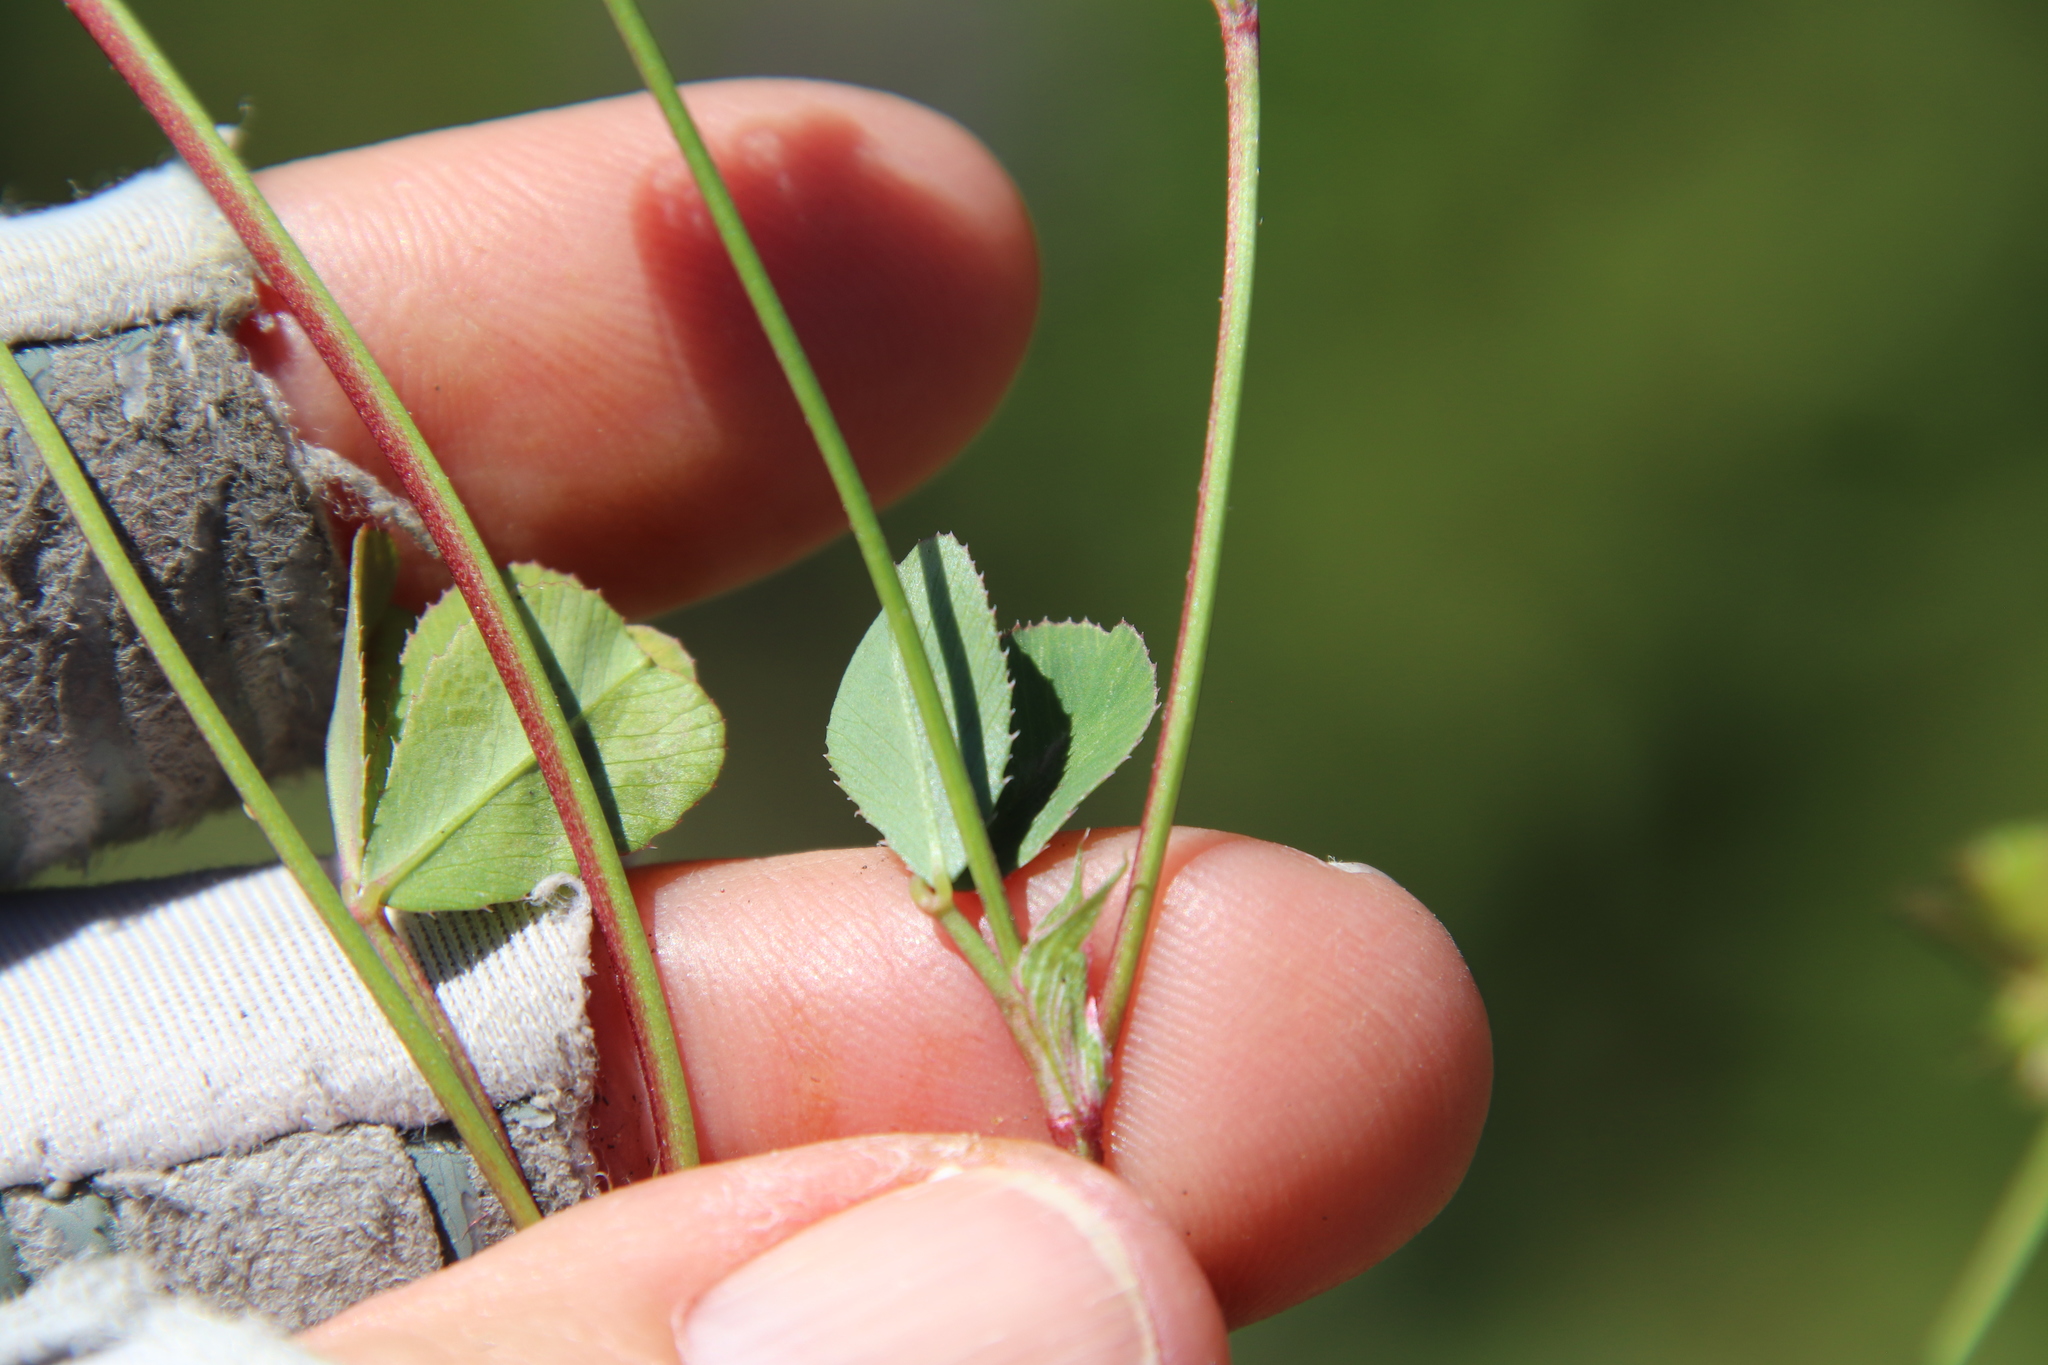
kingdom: Plantae
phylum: Tracheophyta
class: Magnoliopsida
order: Fabales
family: Fabaceae
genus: Trifolium
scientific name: Trifolium gracilentum
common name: Slender clover
